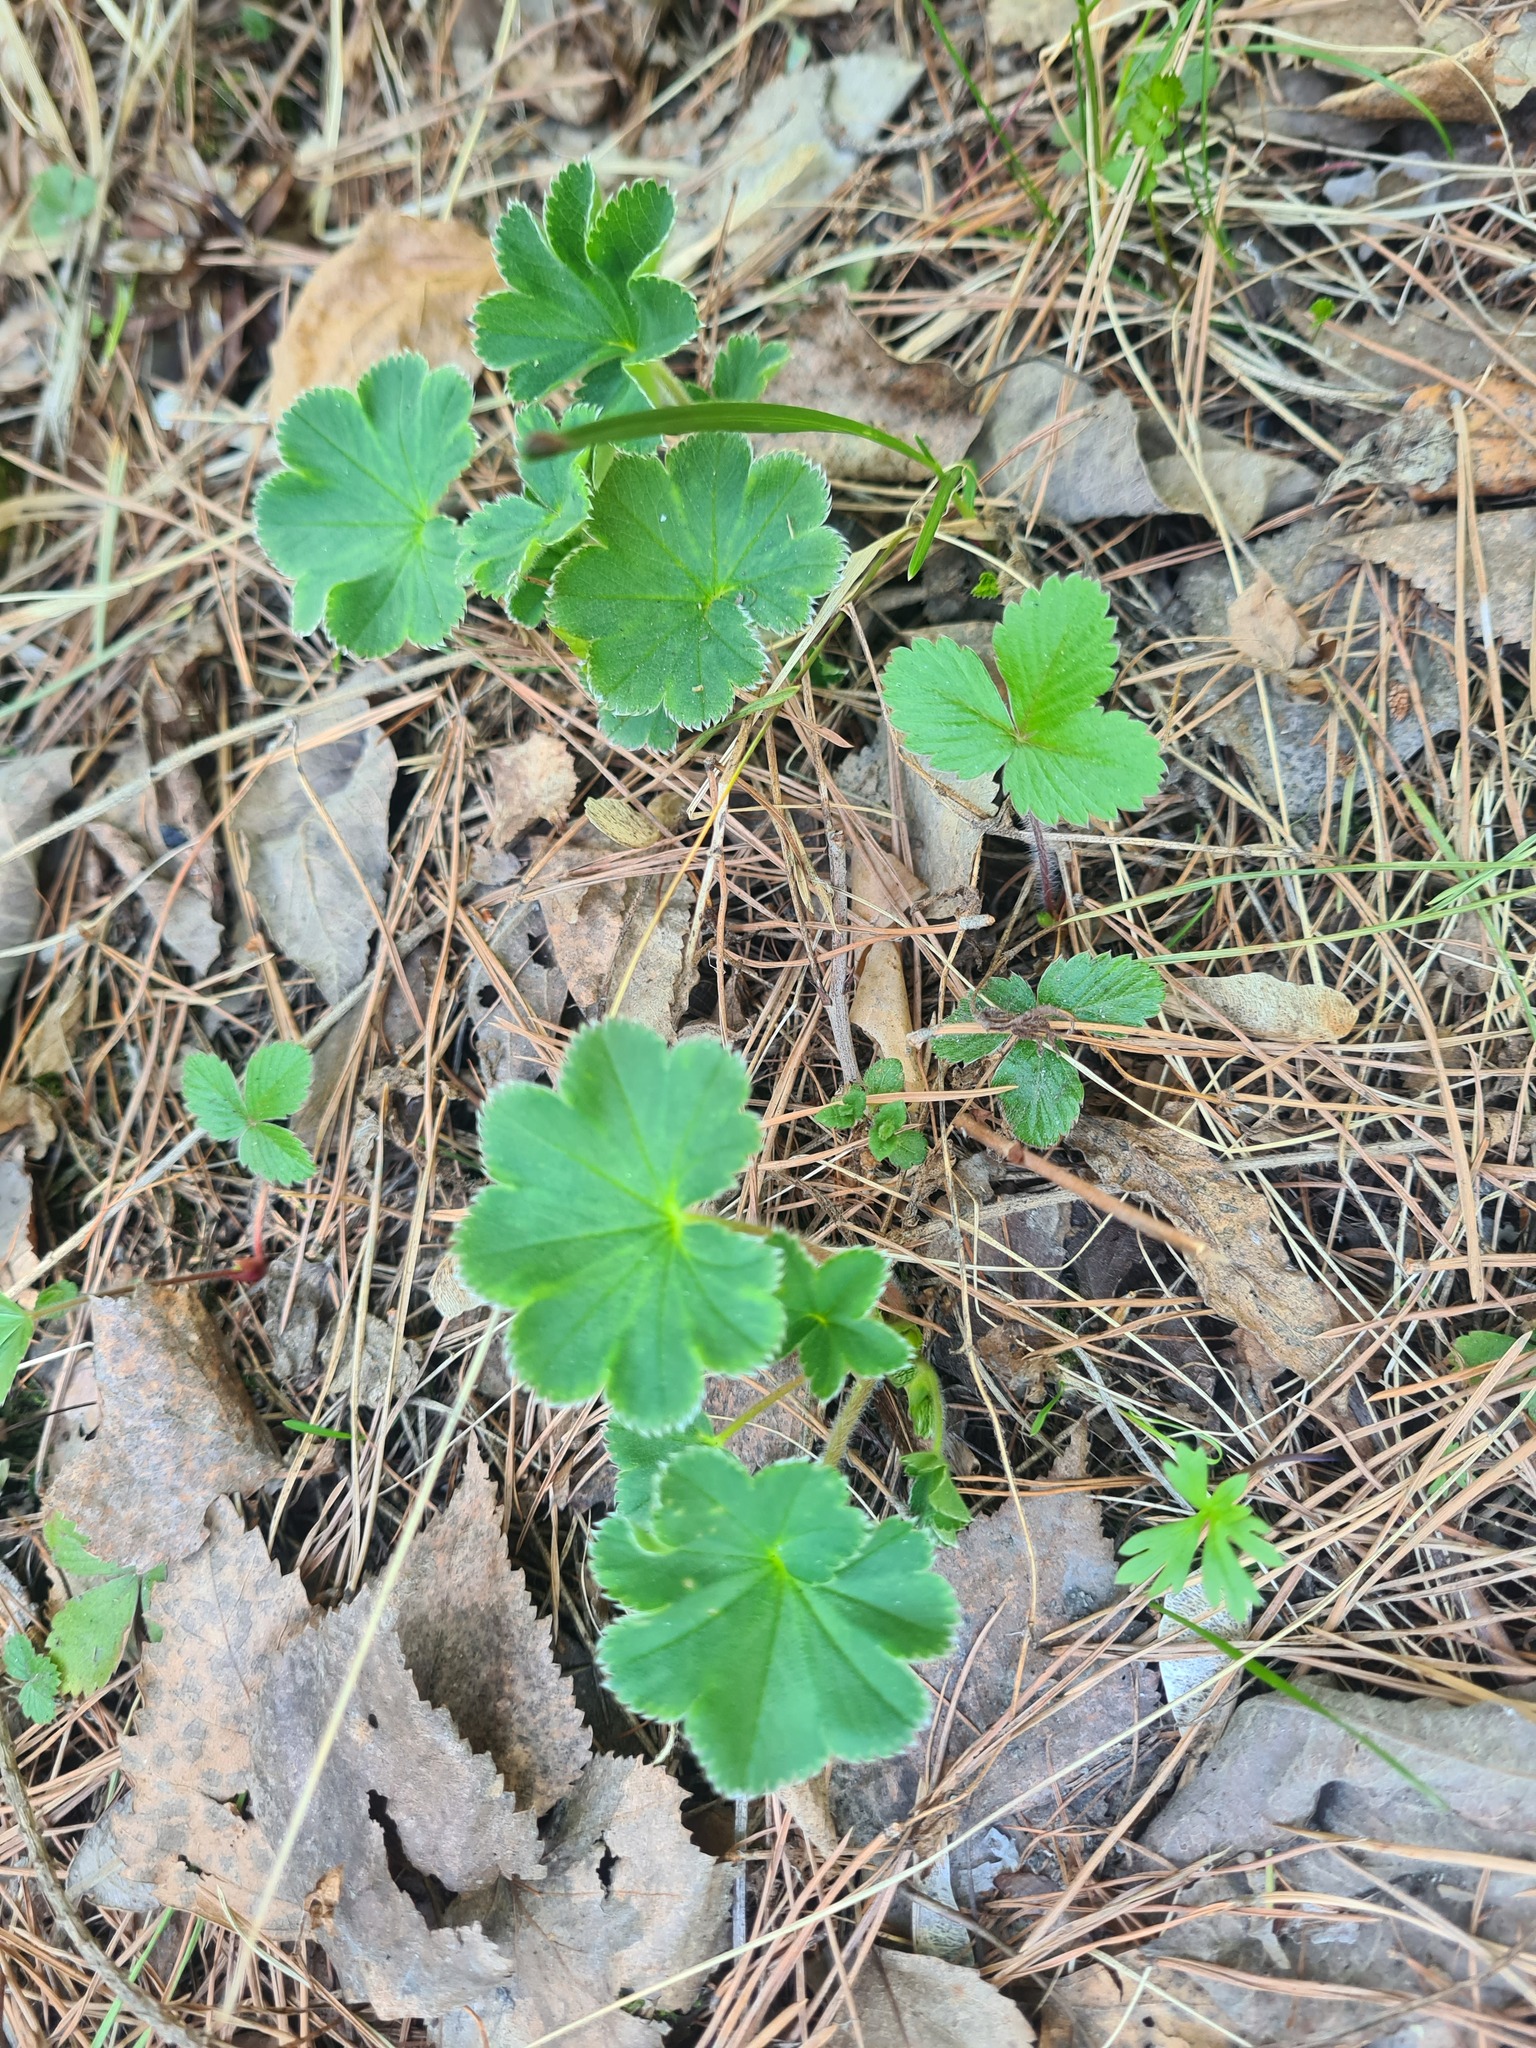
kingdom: Plantae
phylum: Tracheophyta
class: Magnoliopsida
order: Rosales
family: Rosaceae
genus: Alchemilla
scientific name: Alchemilla subcrenata
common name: Broadtooth lady's mantle
